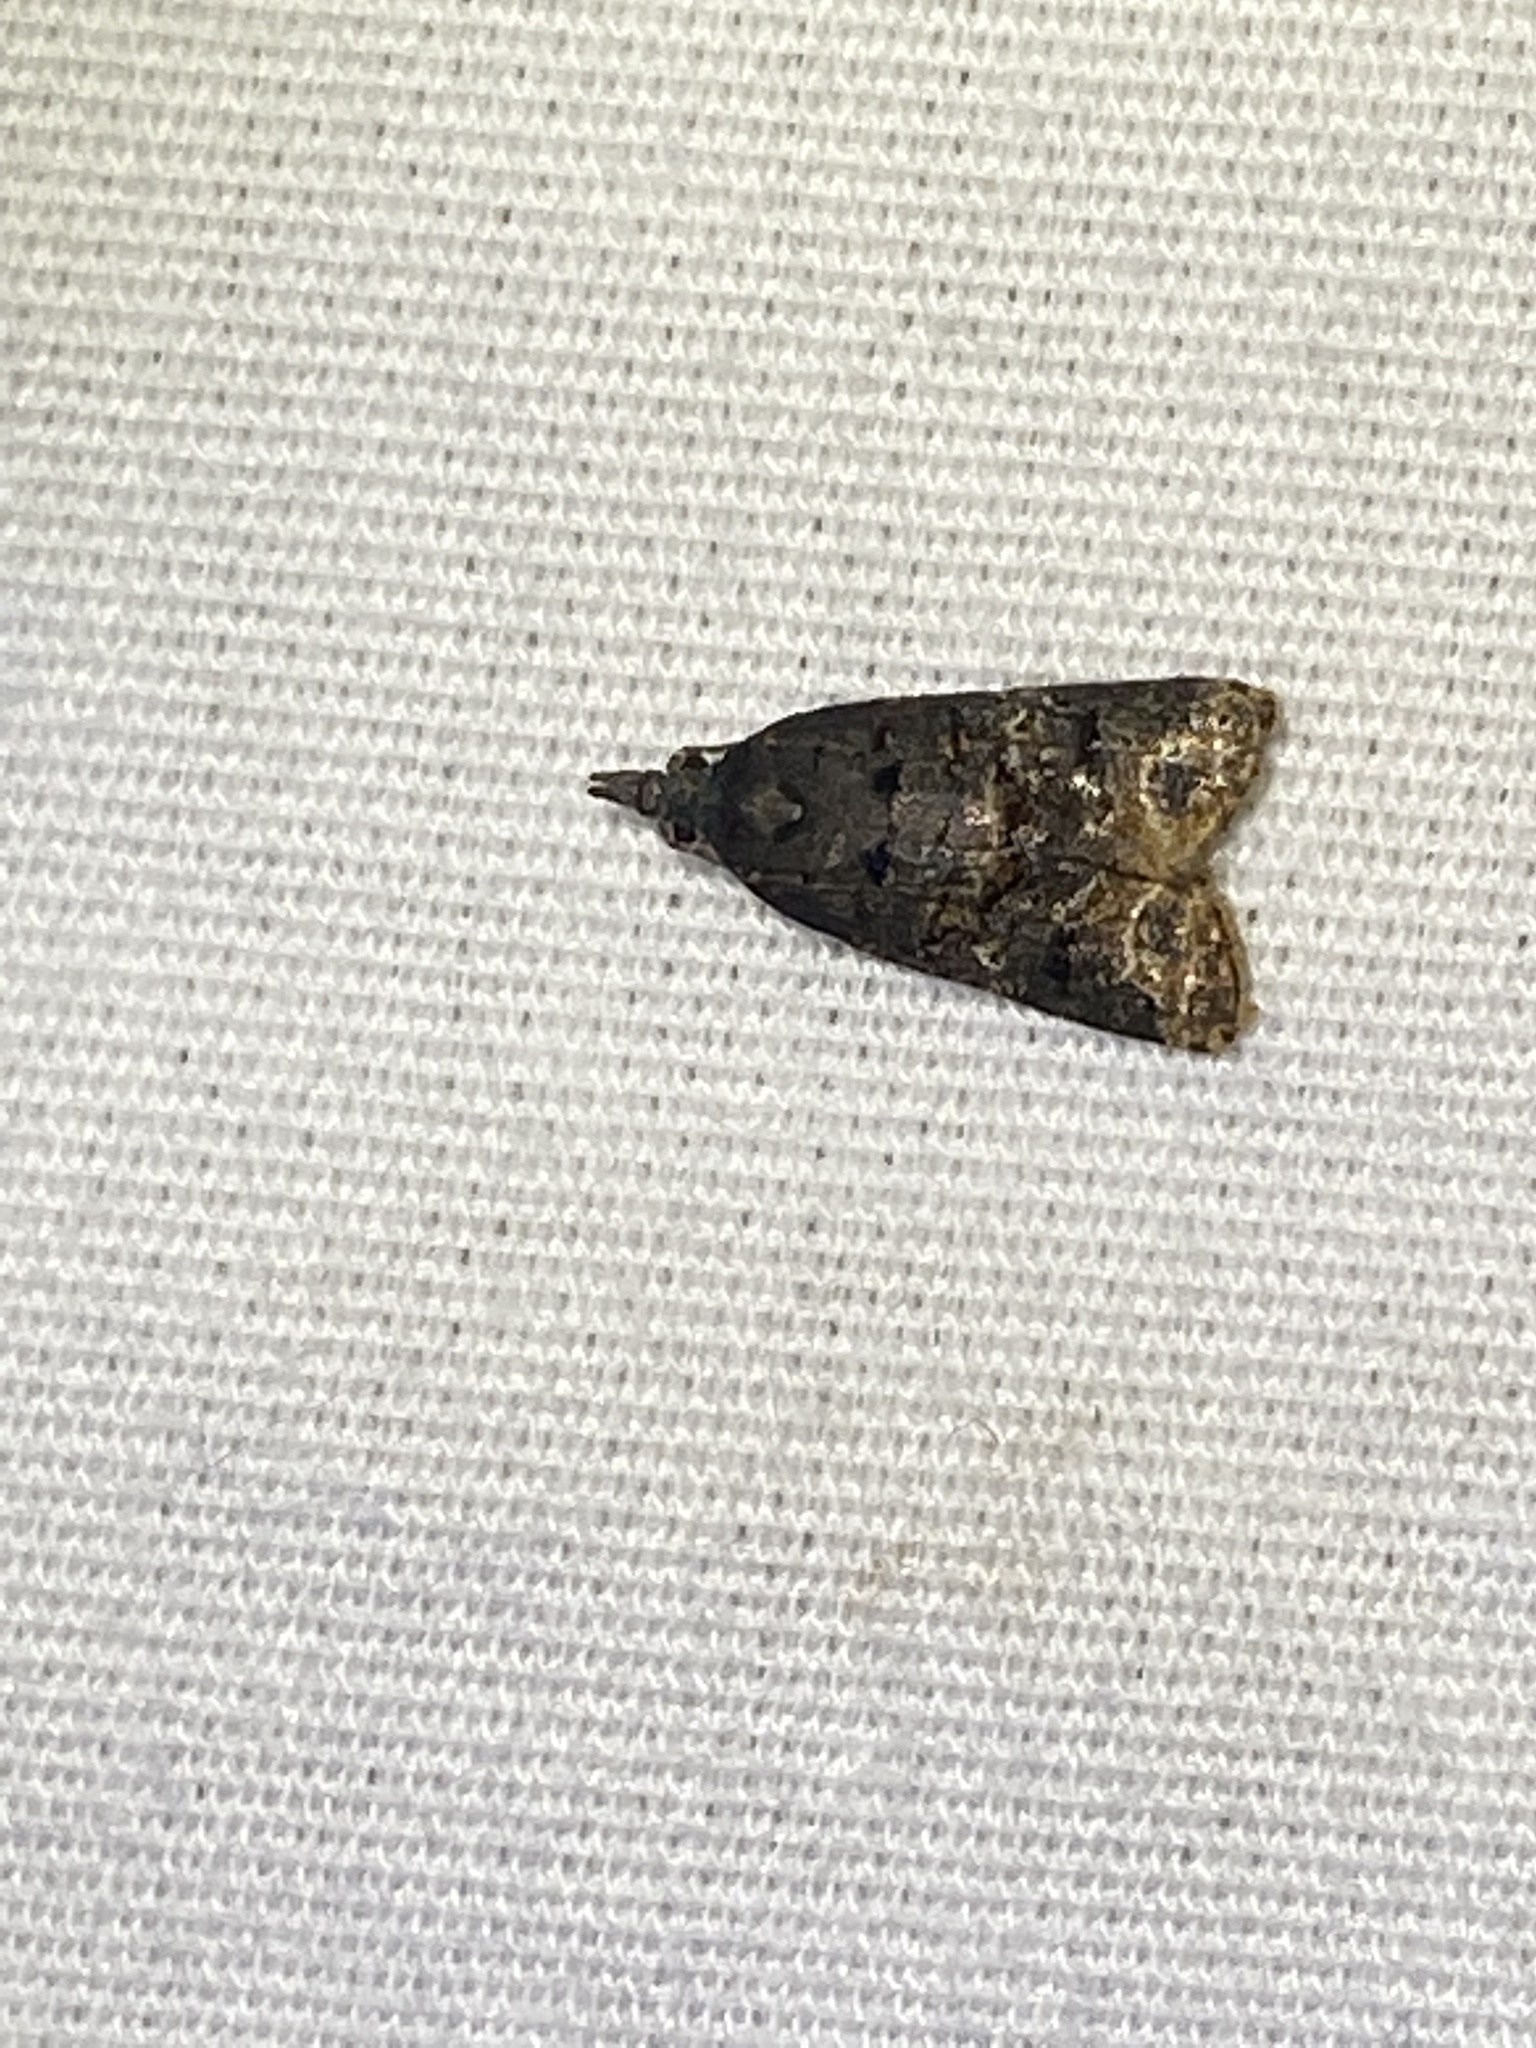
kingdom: Animalia
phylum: Arthropoda
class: Insecta
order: Lepidoptera
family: Tortricidae
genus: Platynota
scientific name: Platynota semiustana
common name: Singed platynota
